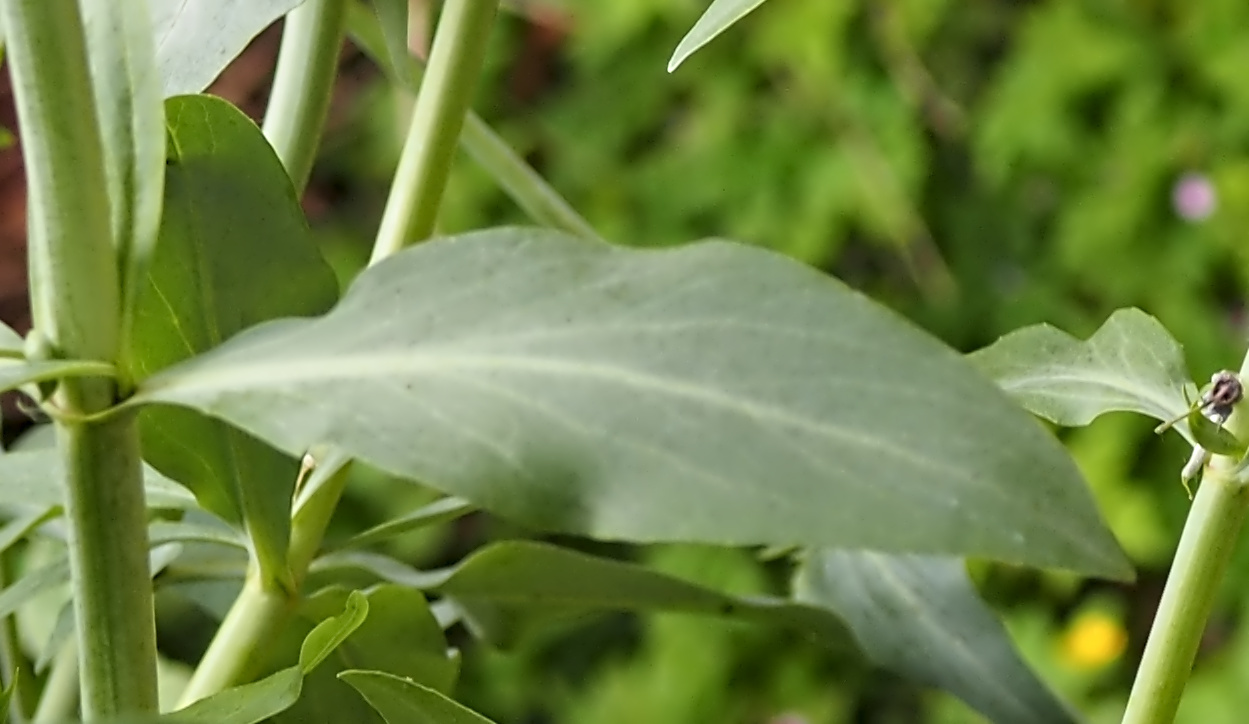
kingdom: Plantae
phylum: Tracheophyta
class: Magnoliopsida
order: Dipsacales
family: Caprifoliaceae
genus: Centranthus
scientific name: Centranthus ruber
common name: Red valerian
